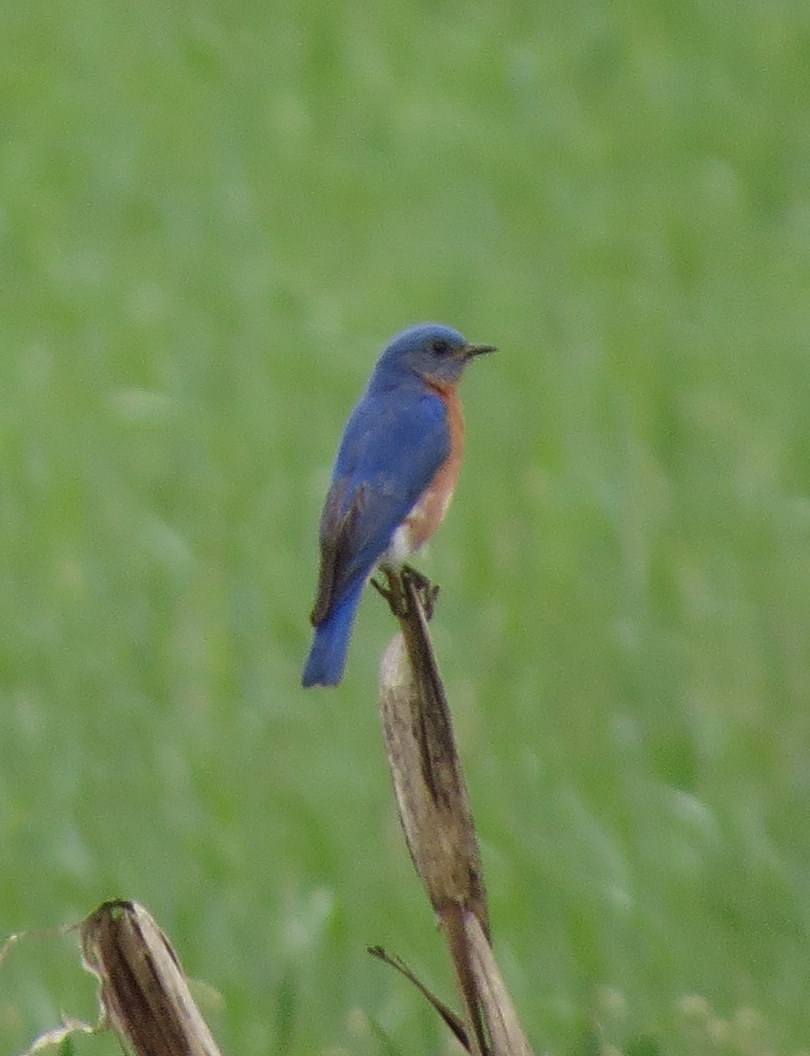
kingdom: Animalia
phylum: Chordata
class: Aves
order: Passeriformes
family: Turdidae
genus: Sialia
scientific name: Sialia sialis
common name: Eastern bluebird
